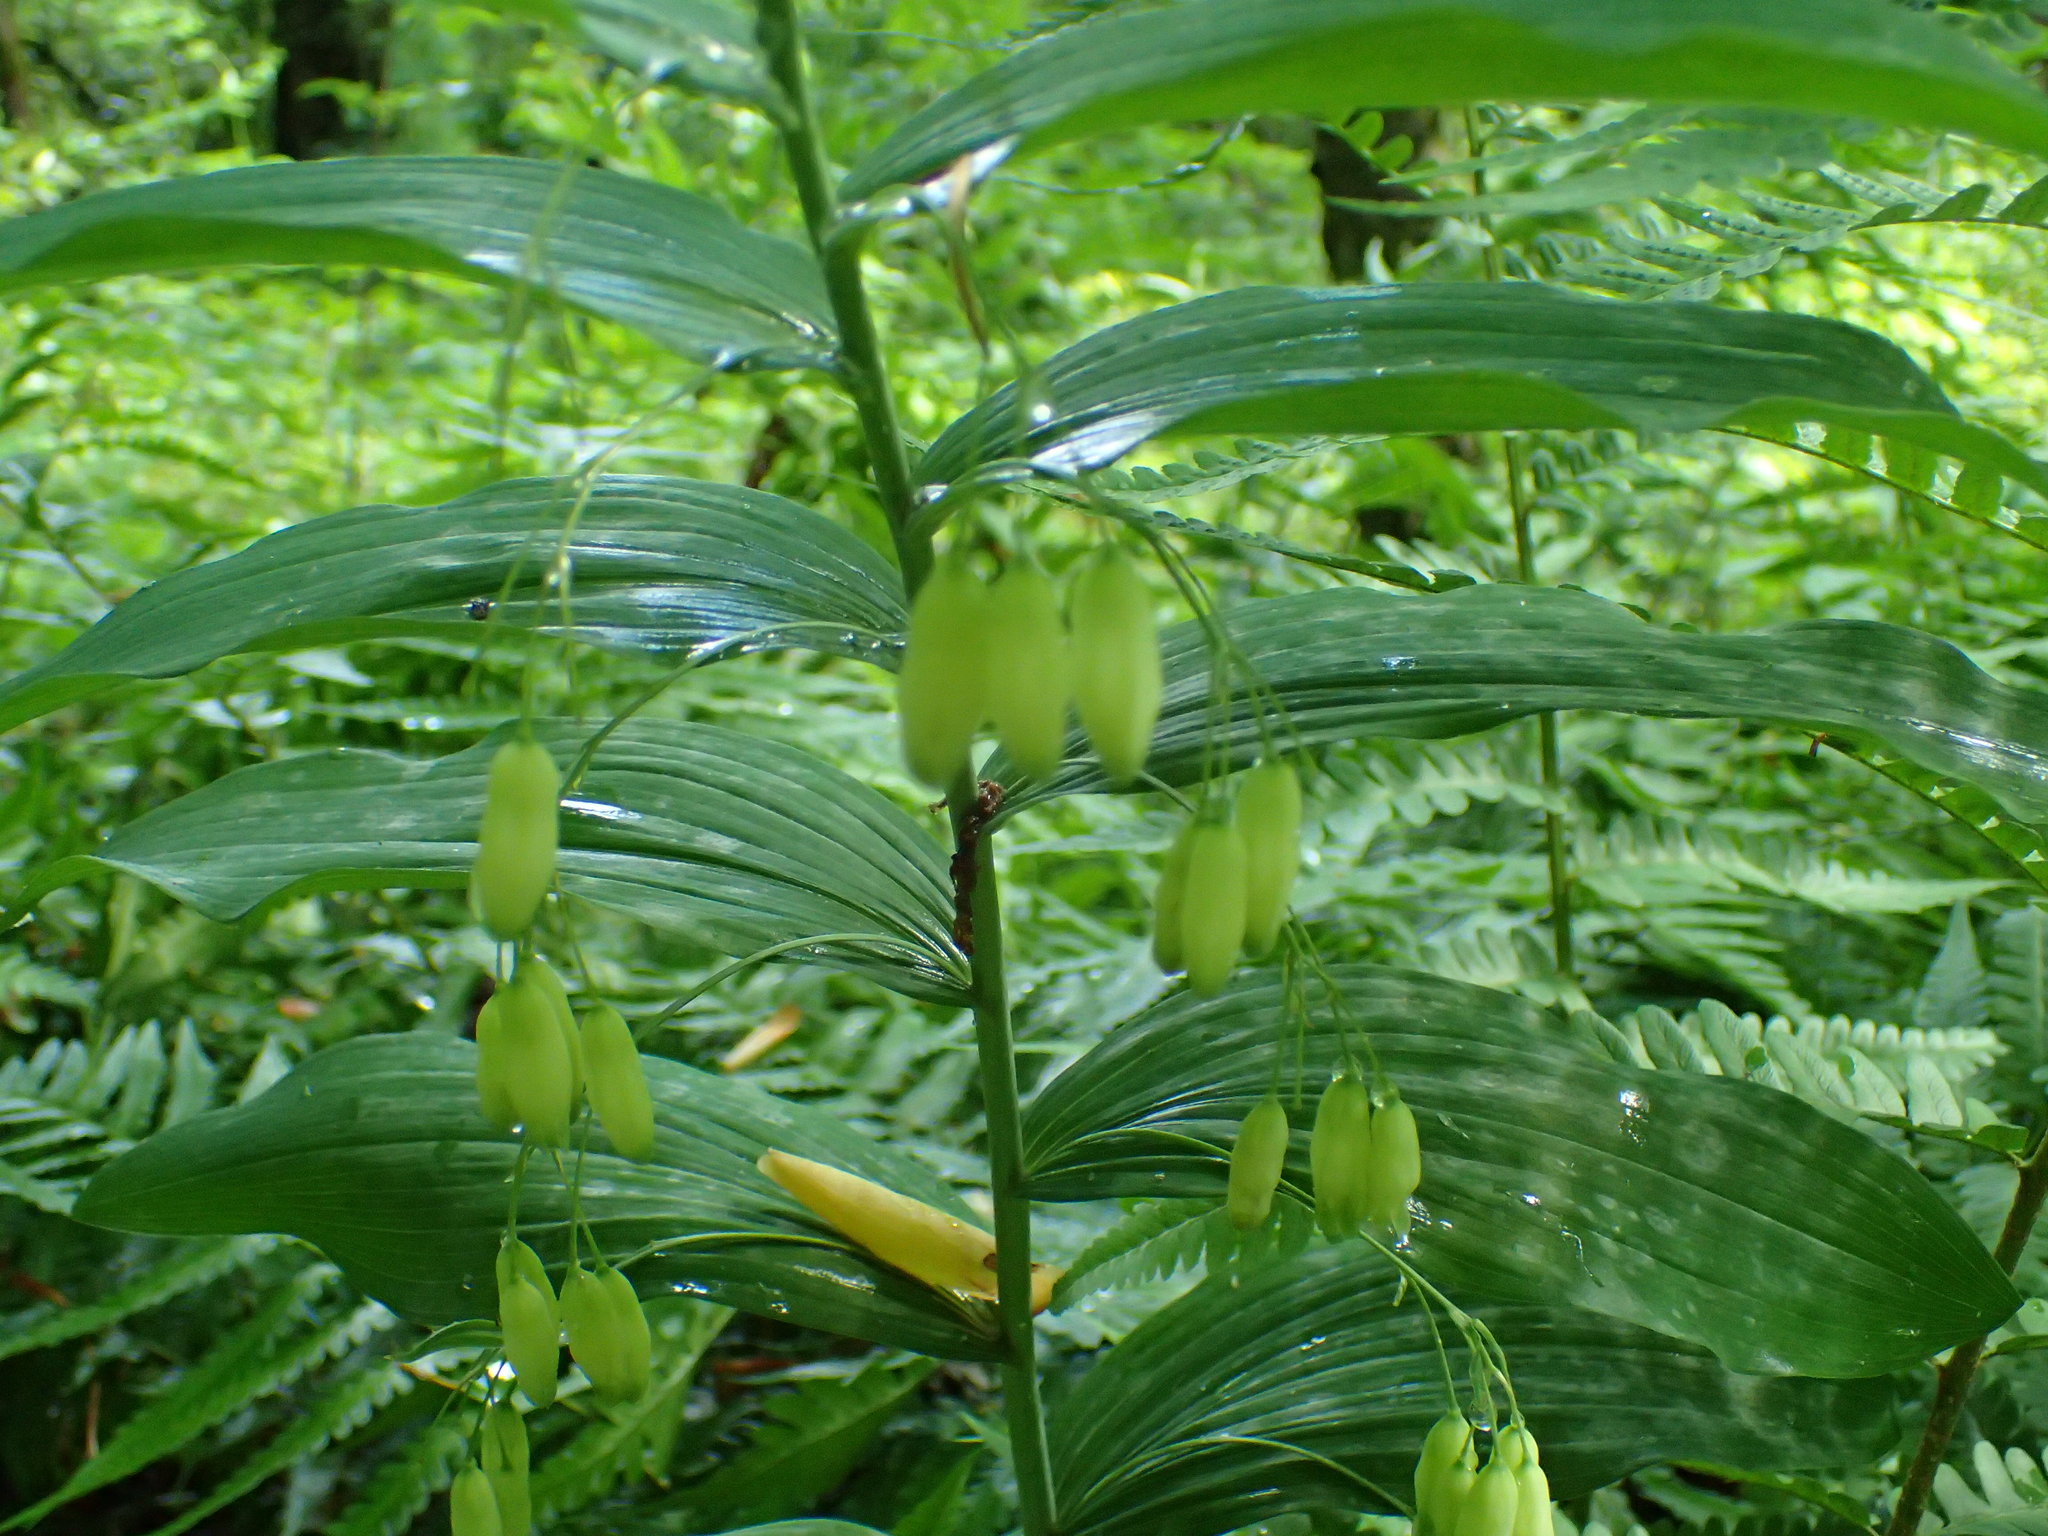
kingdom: Plantae
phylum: Tracheophyta
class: Liliopsida
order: Asparagales
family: Asparagaceae
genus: Polygonatum
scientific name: Polygonatum biflorum
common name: American solomon's-seal
